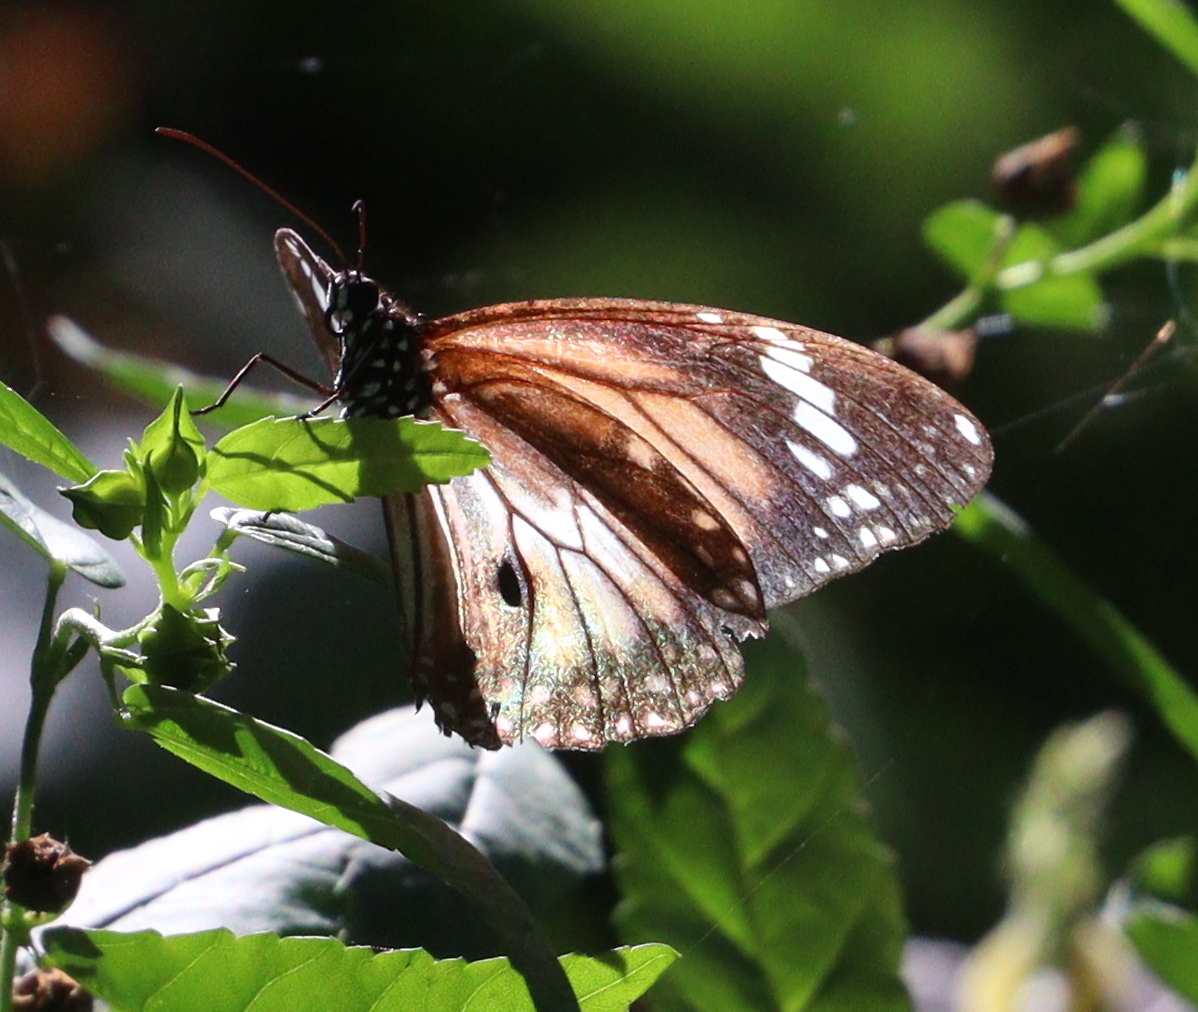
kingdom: Animalia
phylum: Arthropoda
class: Insecta
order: Lepidoptera
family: Nymphalidae
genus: Danaus
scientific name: Danaus affinis
